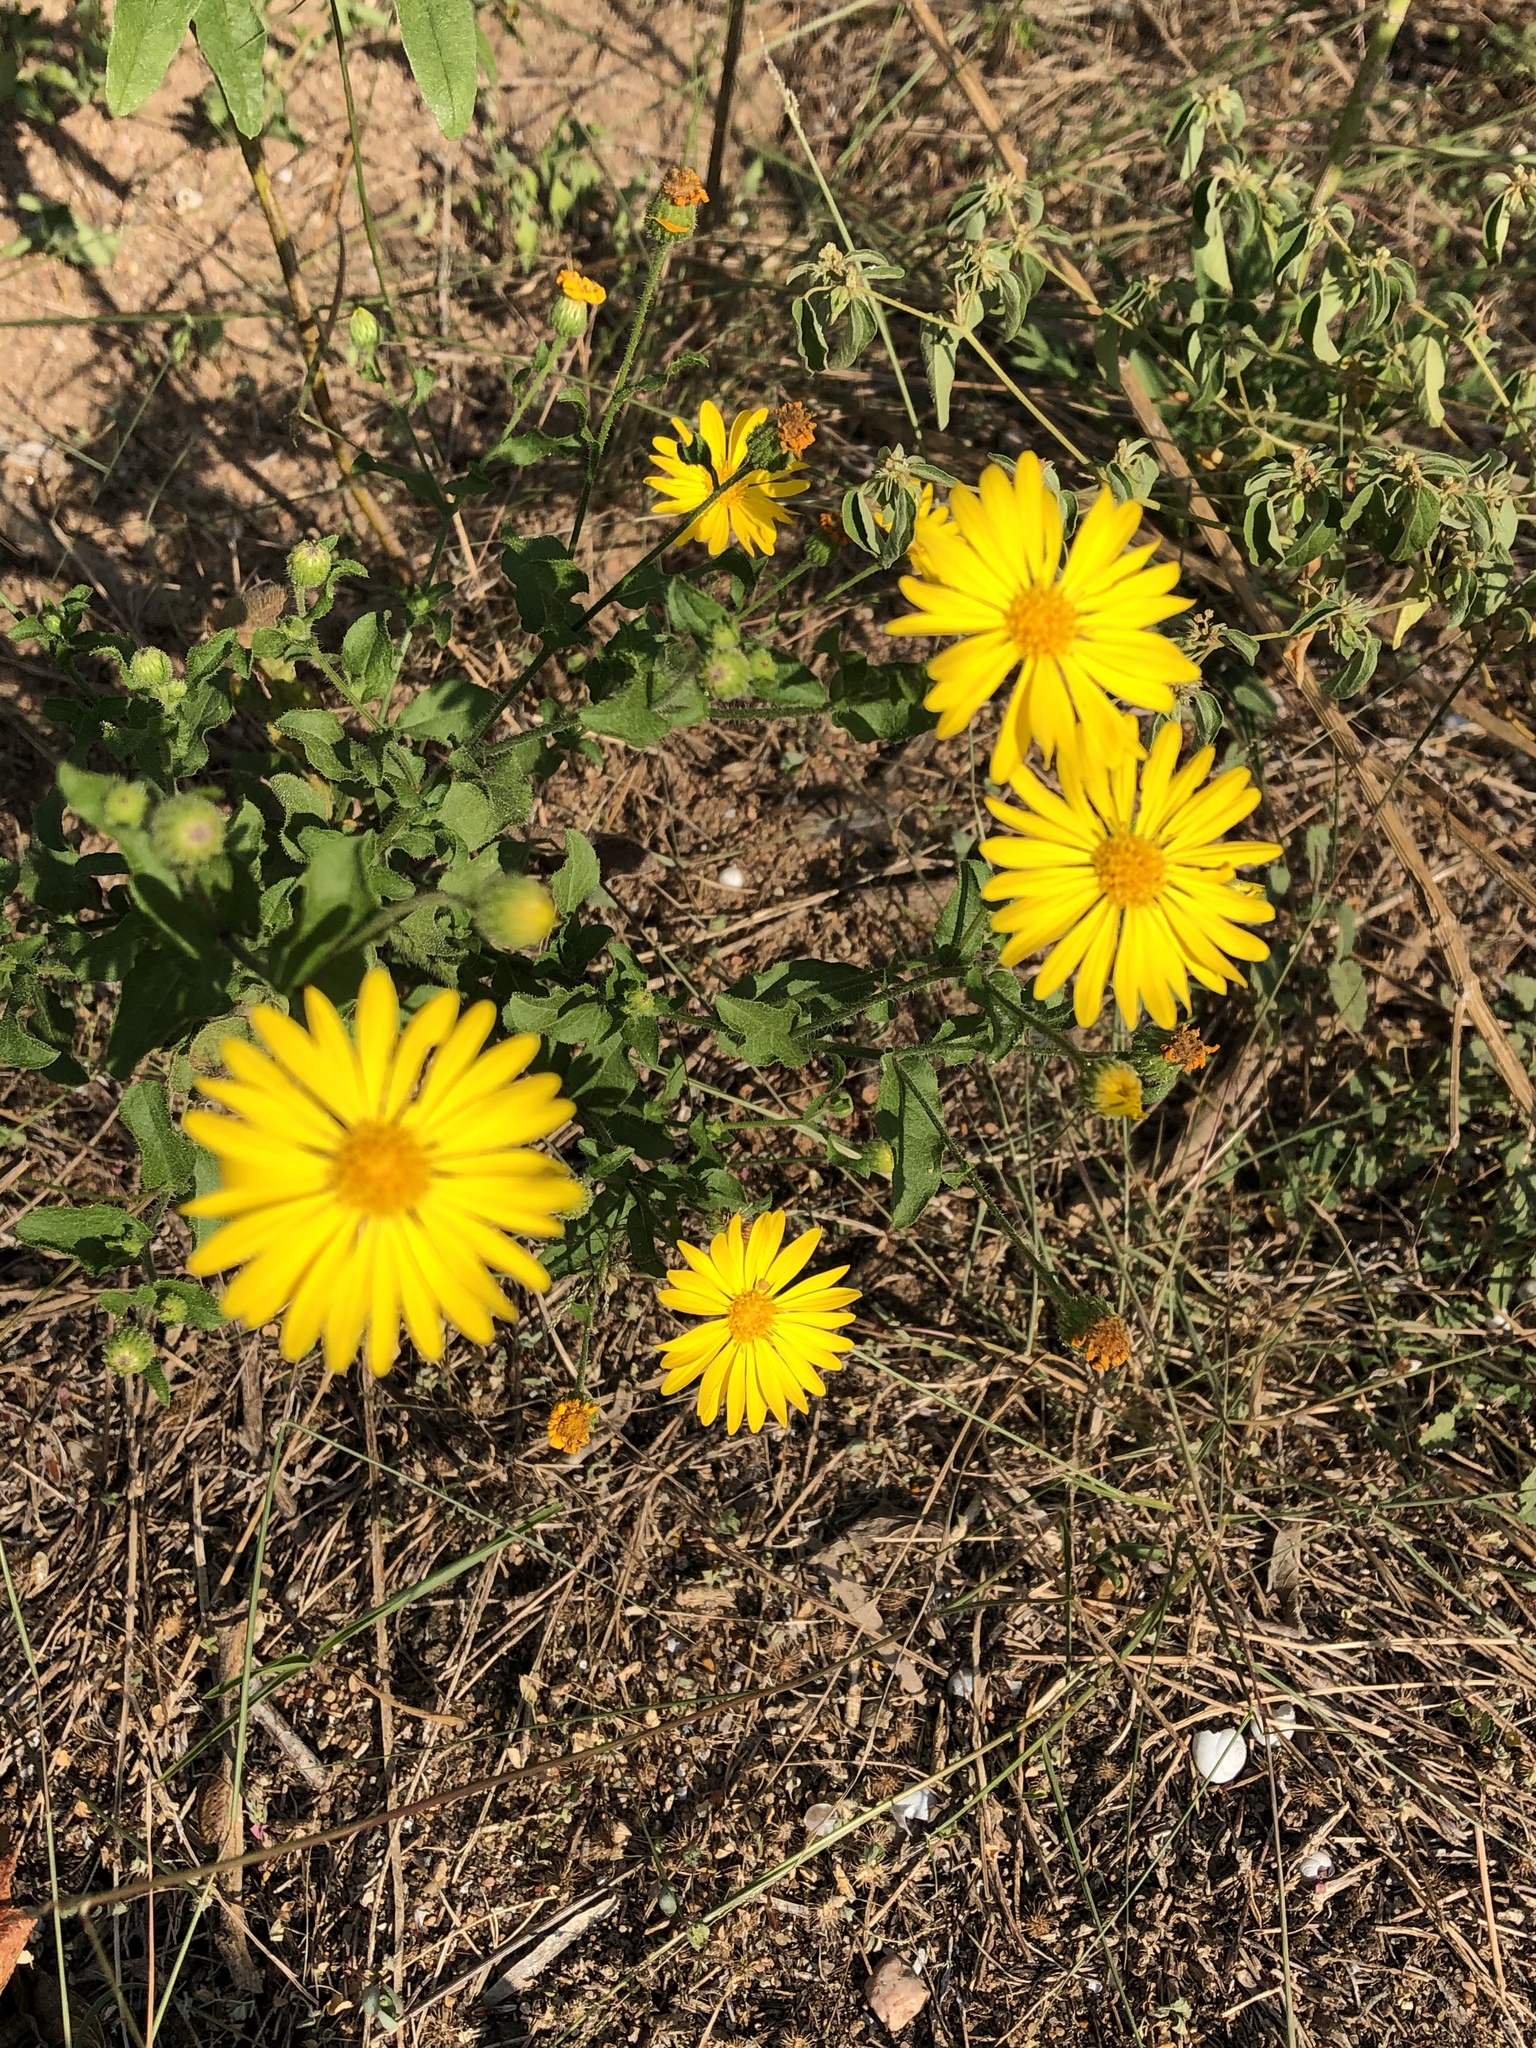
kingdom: Plantae
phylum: Tracheophyta
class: Magnoliopsida
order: Asterales
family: Asteraceae
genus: Heterotheca
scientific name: Heterotheca subaxillaris
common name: Camphorweed
